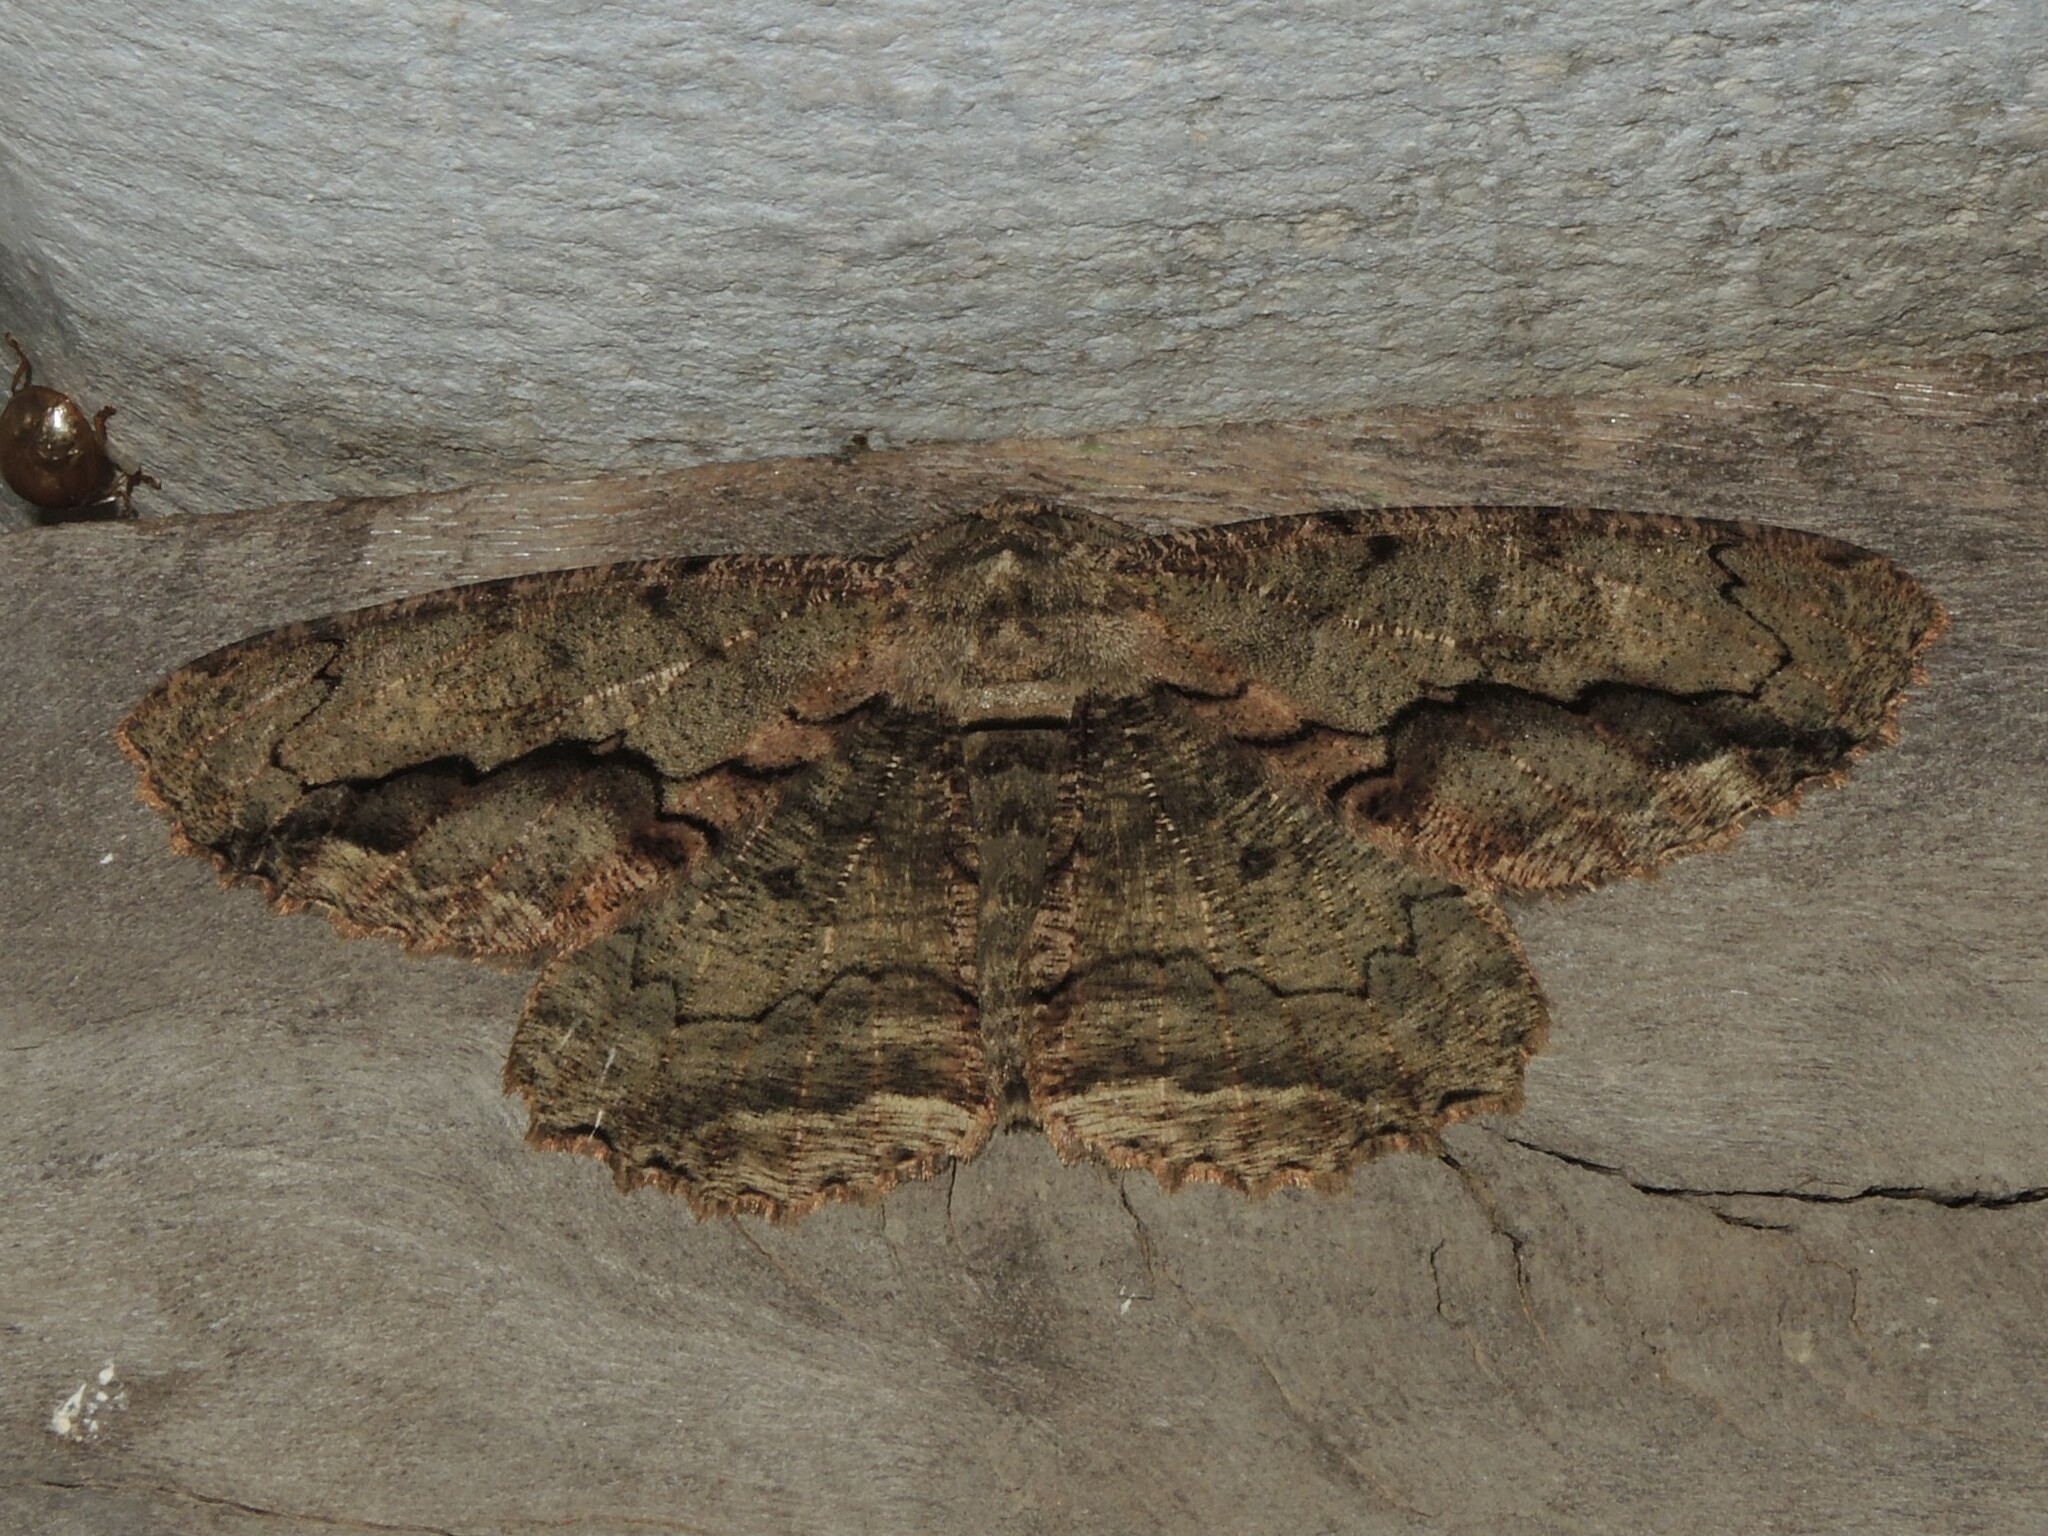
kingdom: Animalia
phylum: Arthropoda
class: Insecta
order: Lepidoptera
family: Geometridae
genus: Chorodna
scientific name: Chorodna strixaria
